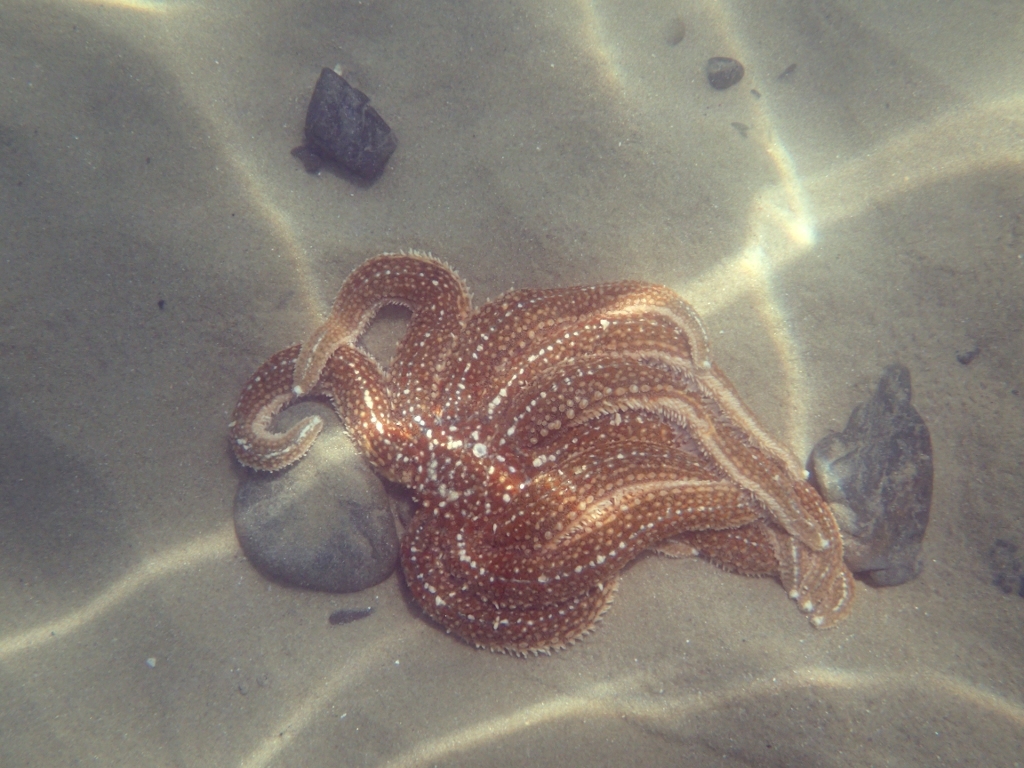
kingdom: Animalia
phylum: Echinodermata
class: Asteroidea
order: Forcipulatida
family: Asteriidae
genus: Coscinasterias
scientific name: Coscinasterias muricata
